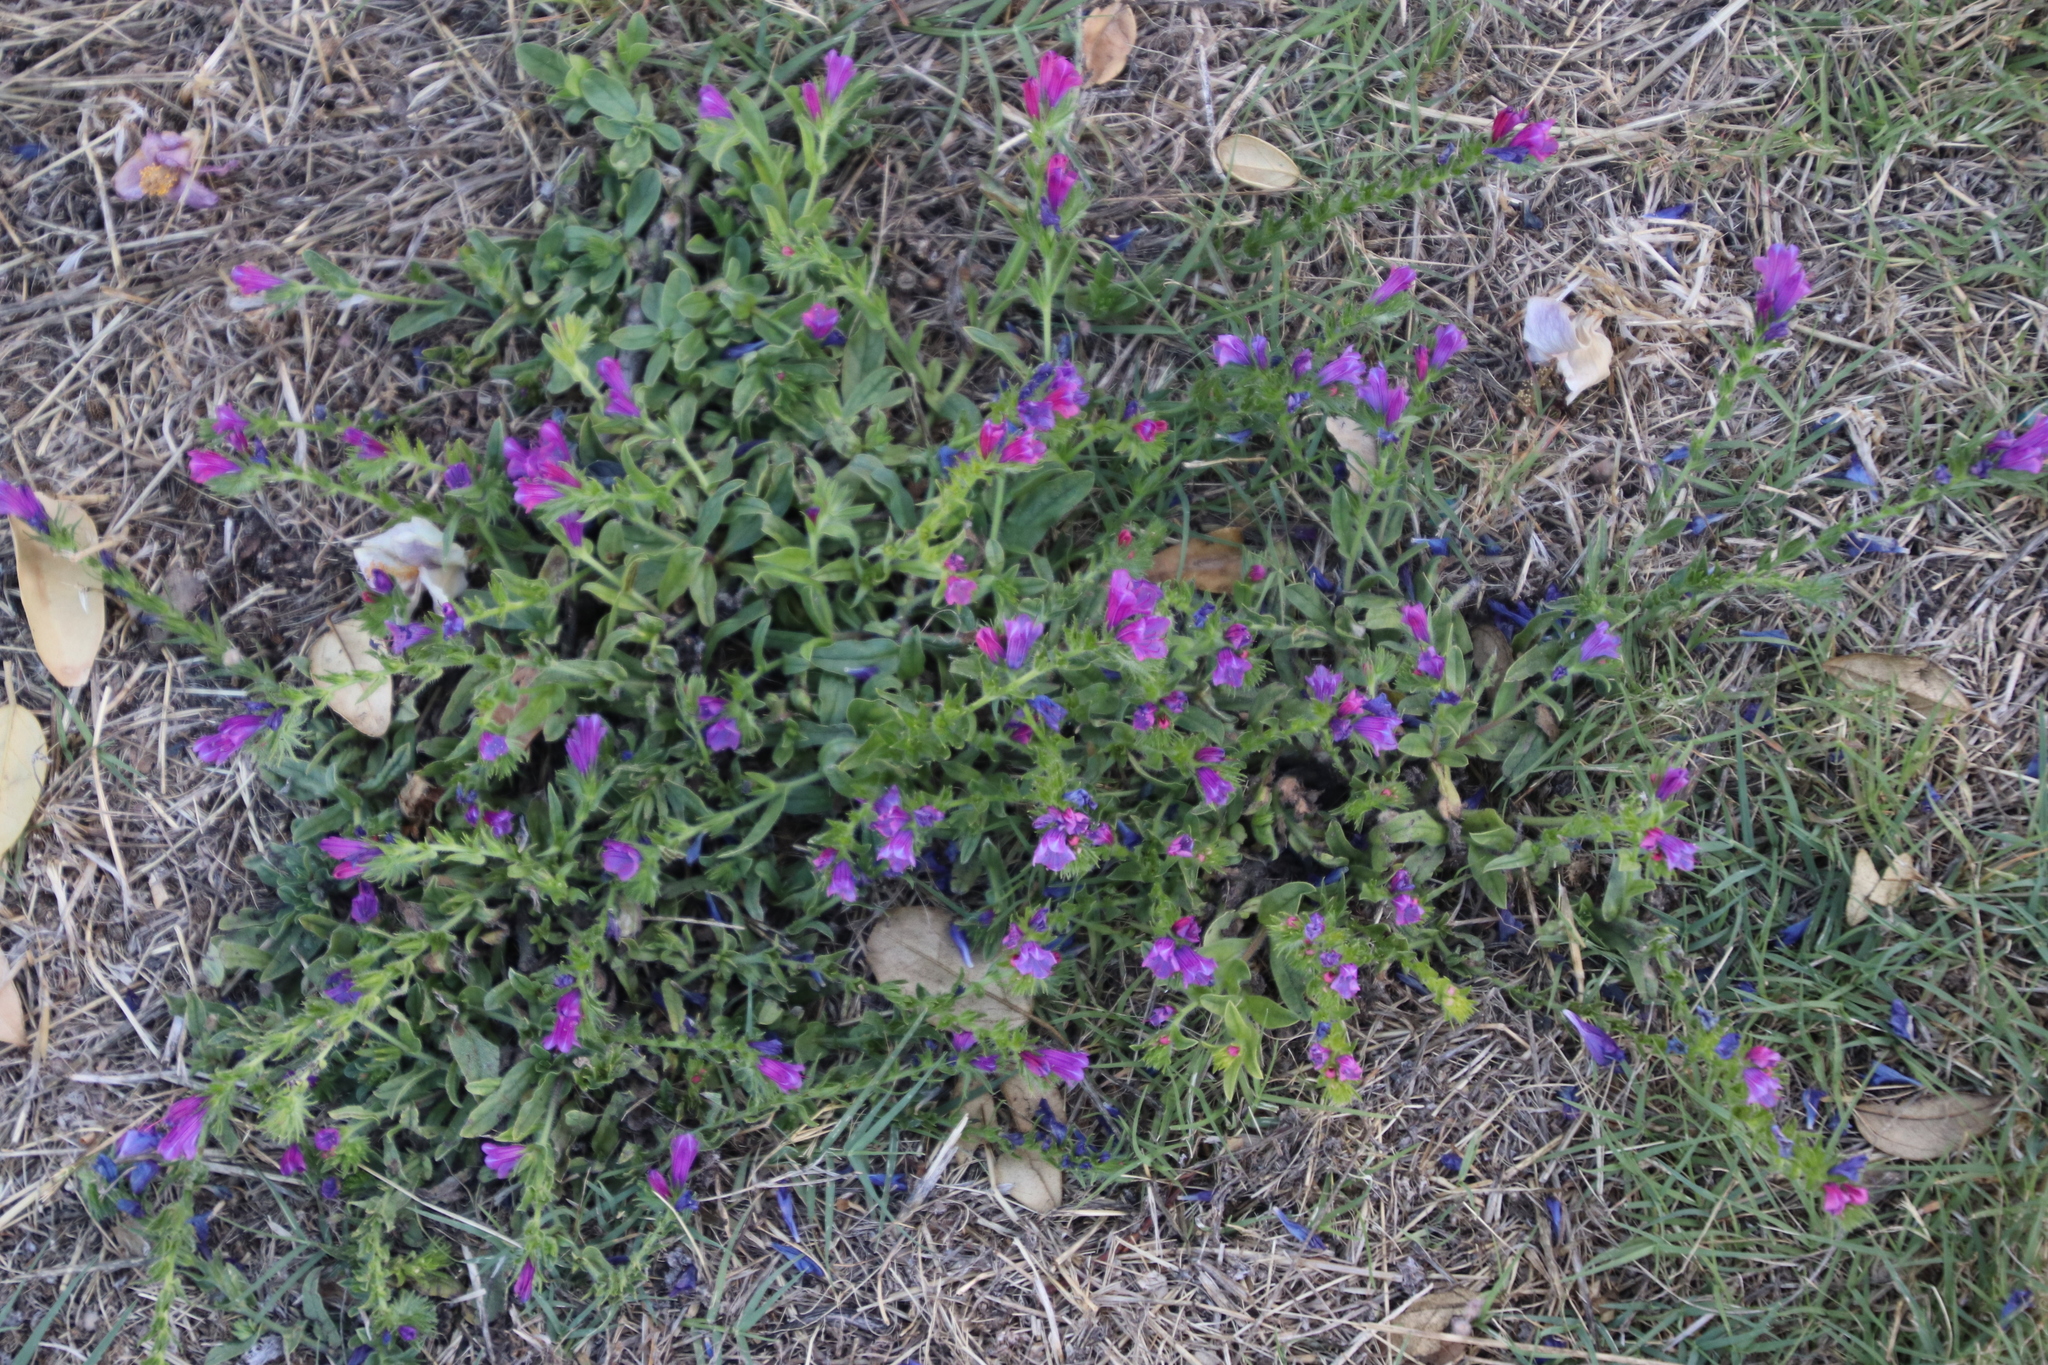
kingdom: Plantae
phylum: Tracheophyta
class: Magnoliopsida
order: Boraginales
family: Boraginaceae
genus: Echium
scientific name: Echium plantagineum
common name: Purple viper's-bugloss
